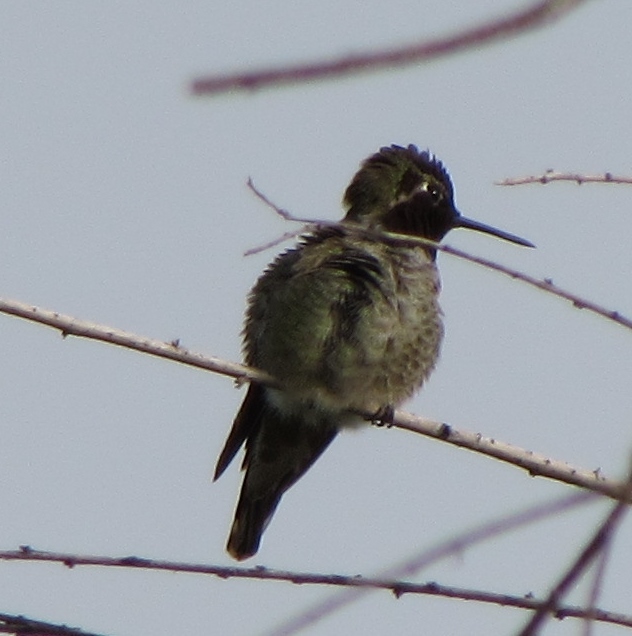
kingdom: Animalia
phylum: Chordata
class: Aves
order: Apodiformes
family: Trochilidae
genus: Calypte
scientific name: Calypte anna
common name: Anna's hummingbird
